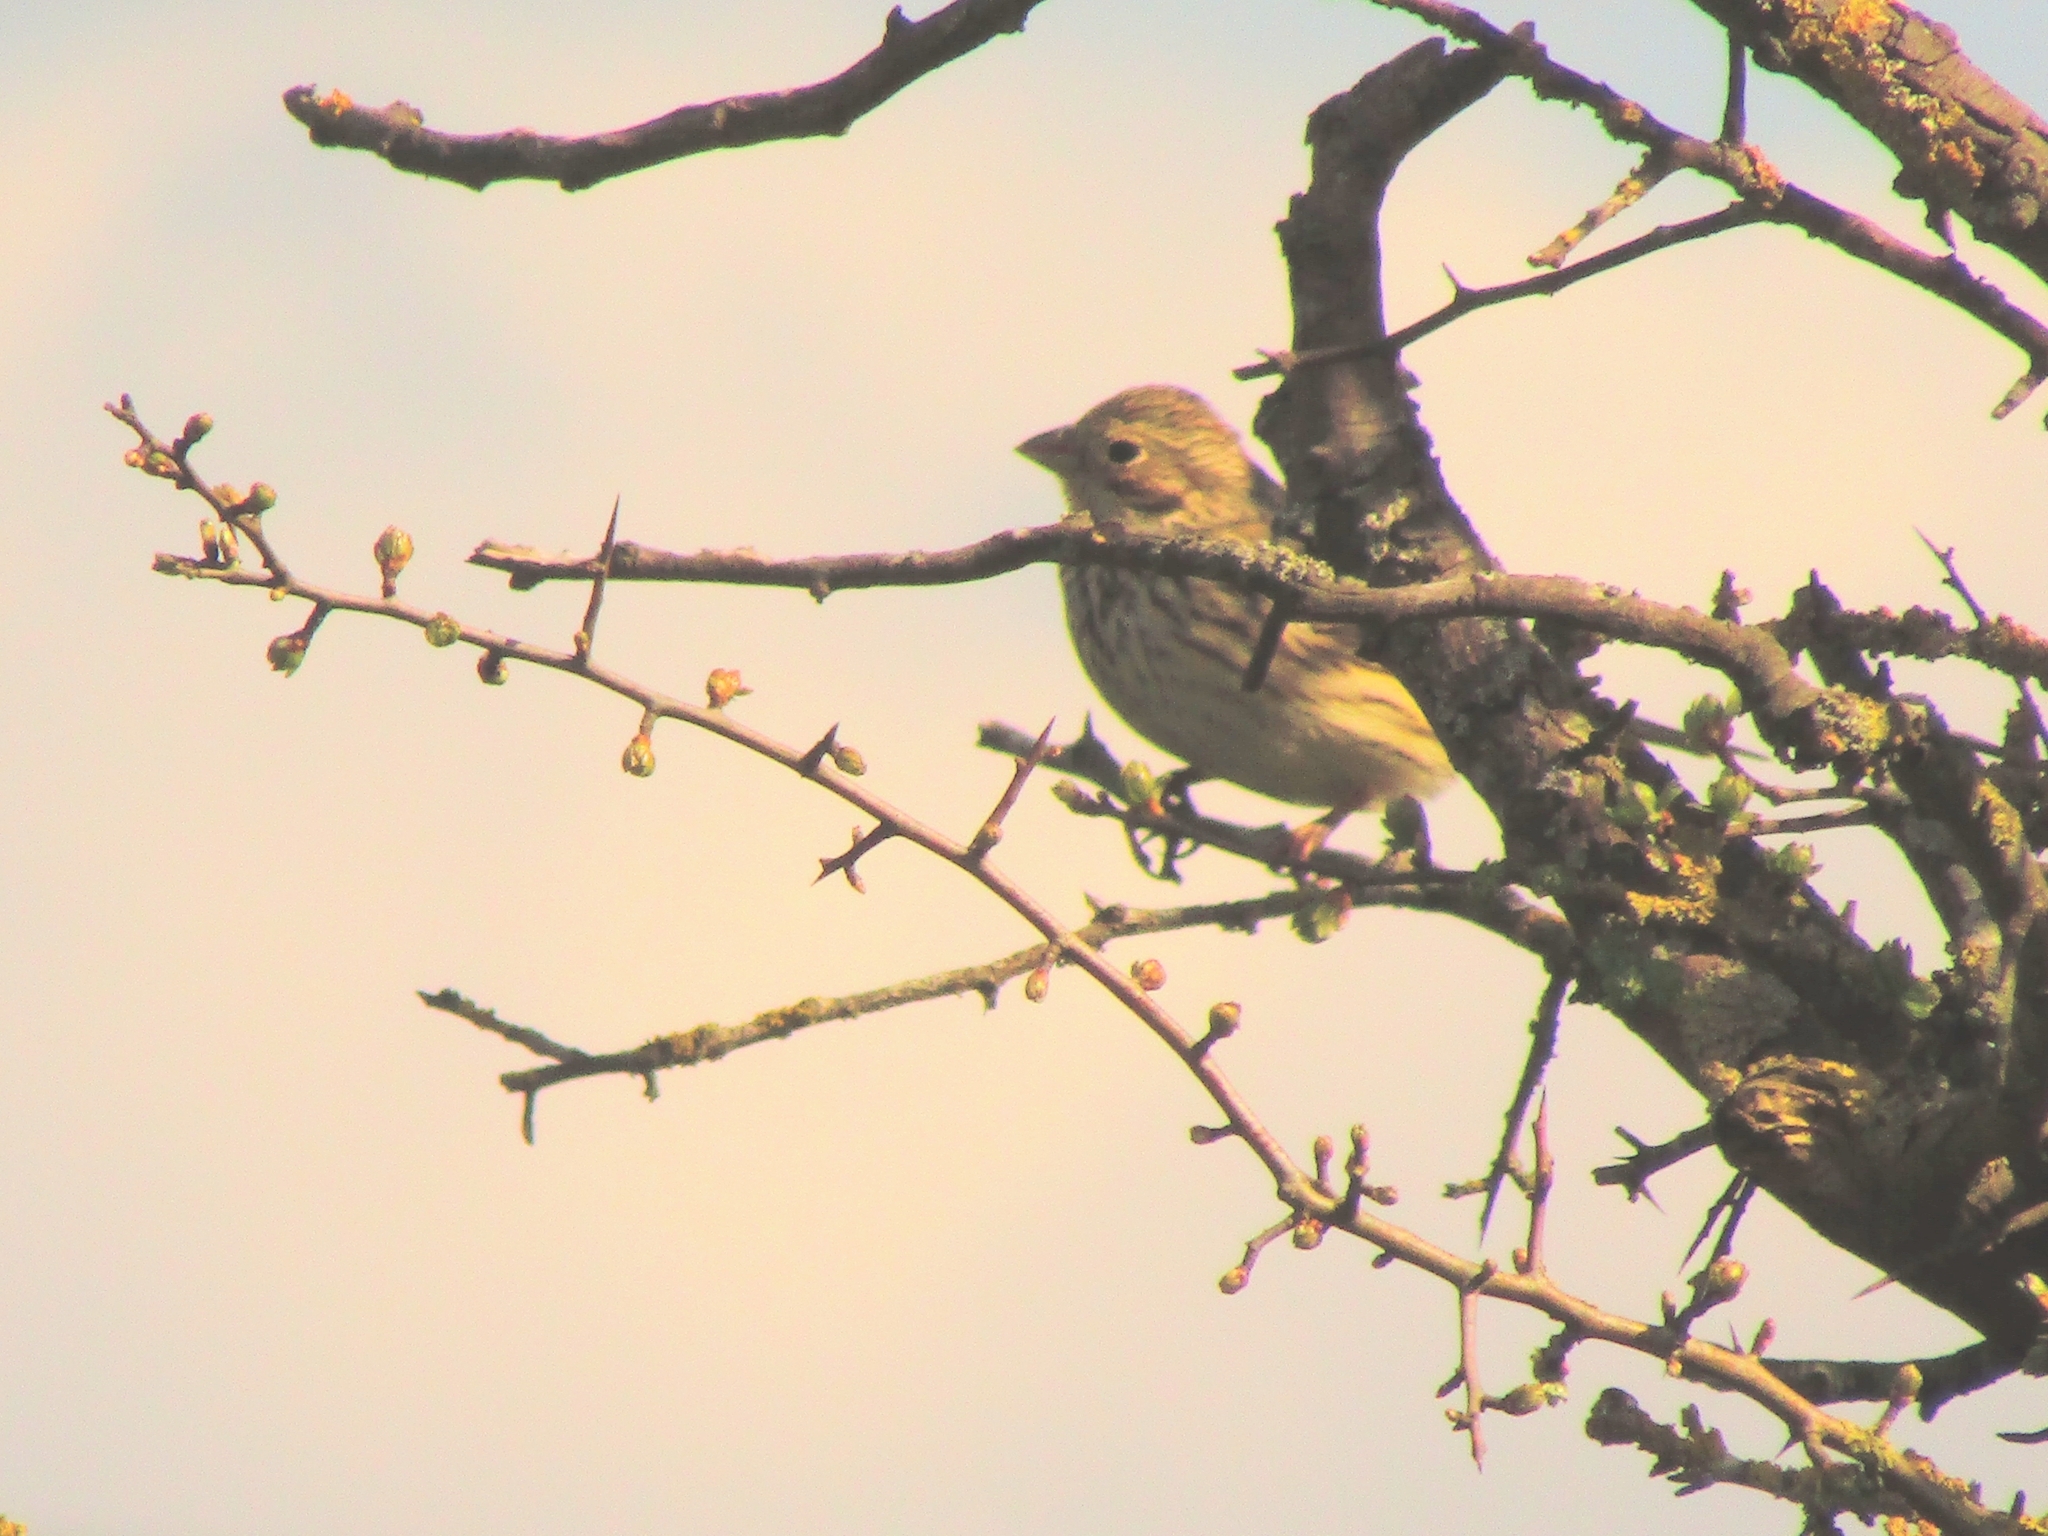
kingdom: Animalia
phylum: Chordata
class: Aves
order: Passeriformes
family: Emberizidae
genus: Emberiza
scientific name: Emberiza calandra
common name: Corn bunting
